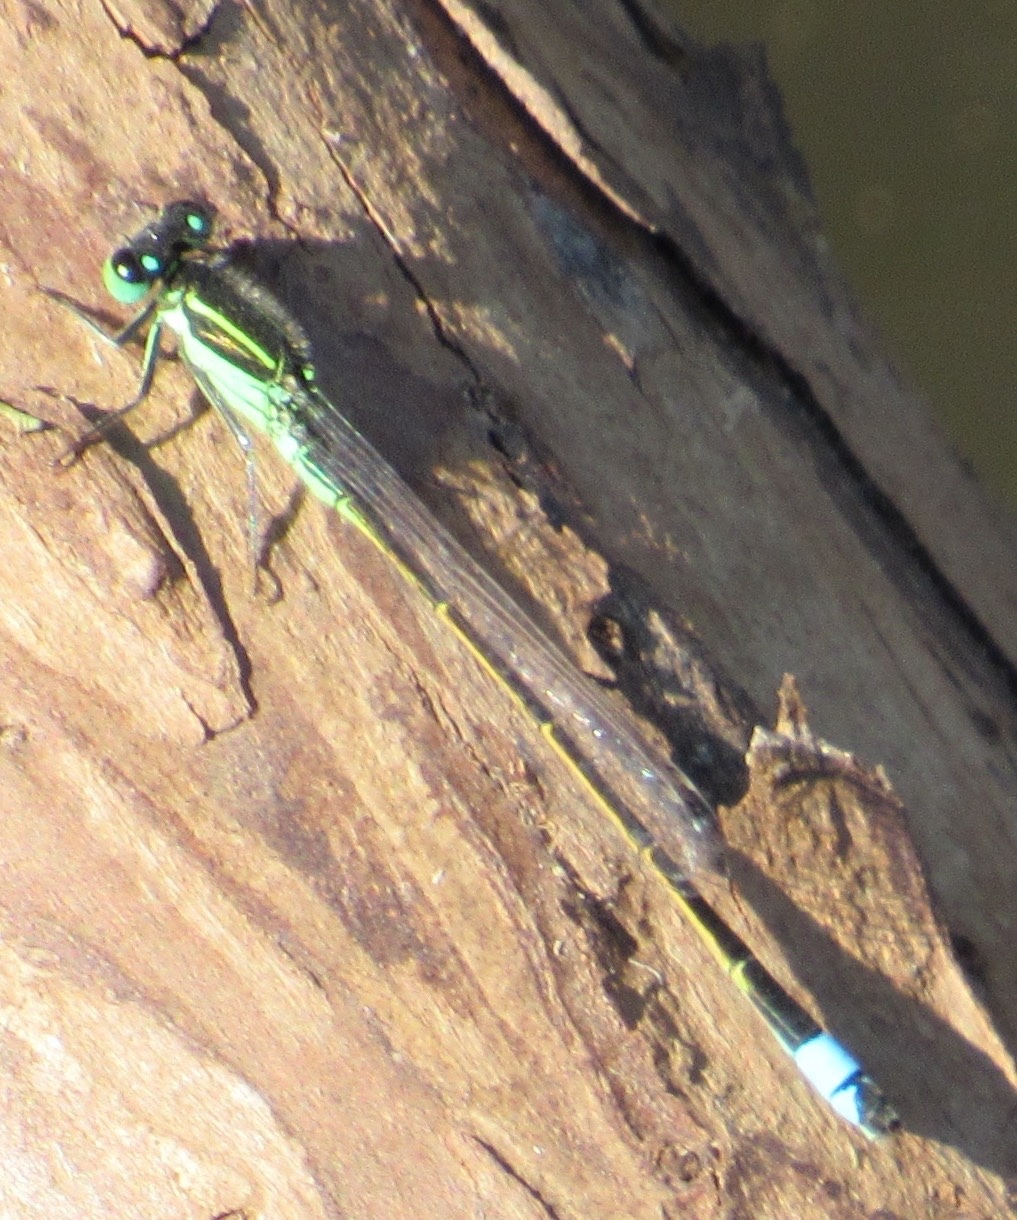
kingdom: Animalia
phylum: Arthropoda
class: Insecta
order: Odonata
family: Coenagrionidae
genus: Ischnura
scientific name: Ischnura ramburii
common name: Rambur's forktail
